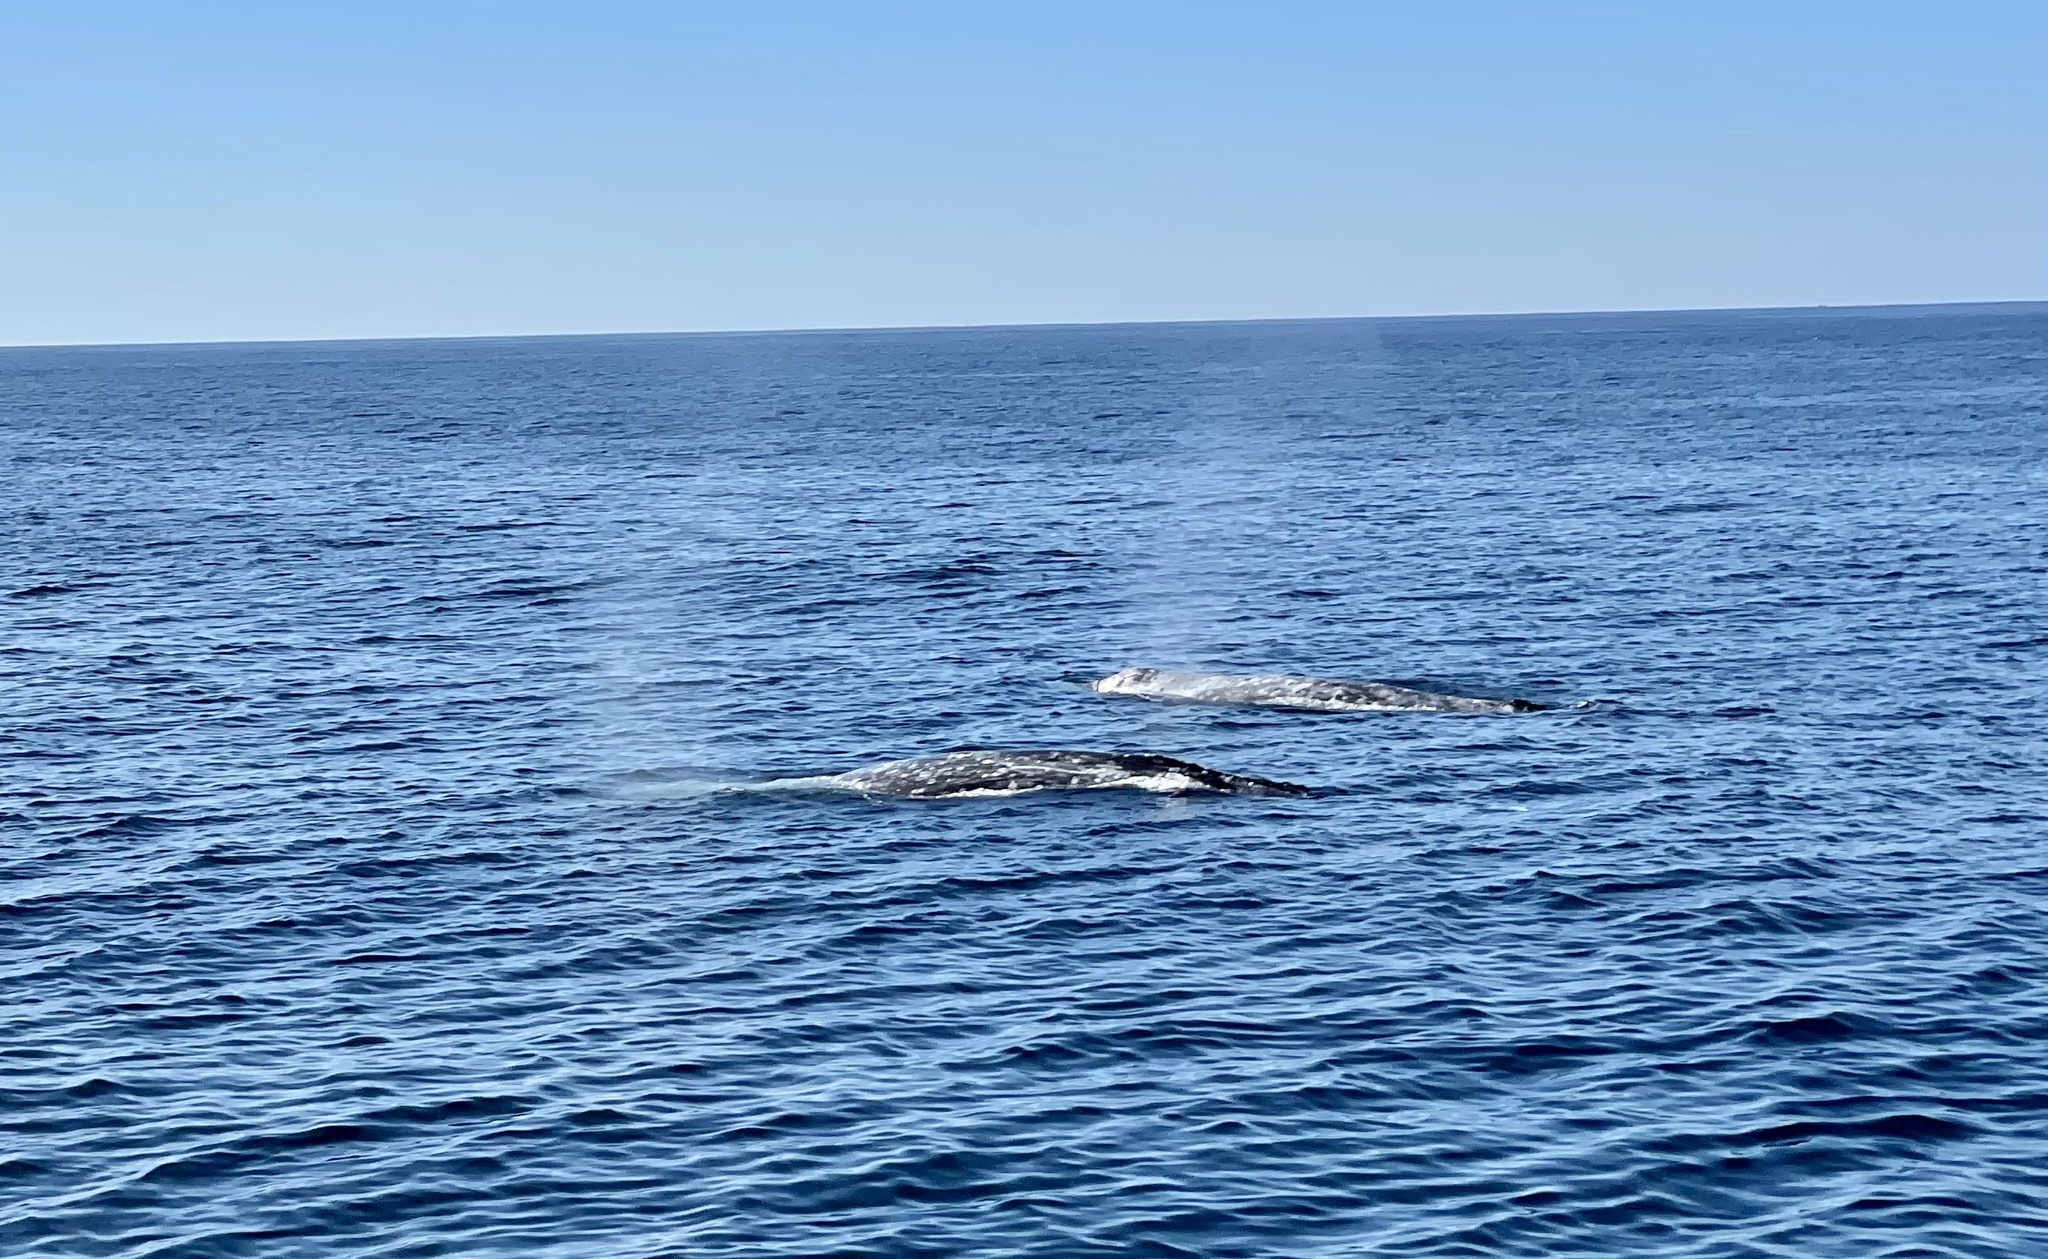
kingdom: Animalia
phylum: Chordata
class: Mammalia
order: Cetacea
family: Eschrichtiidae
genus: Eschrichtius
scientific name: Eschrichtius robustus
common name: Gray whale
